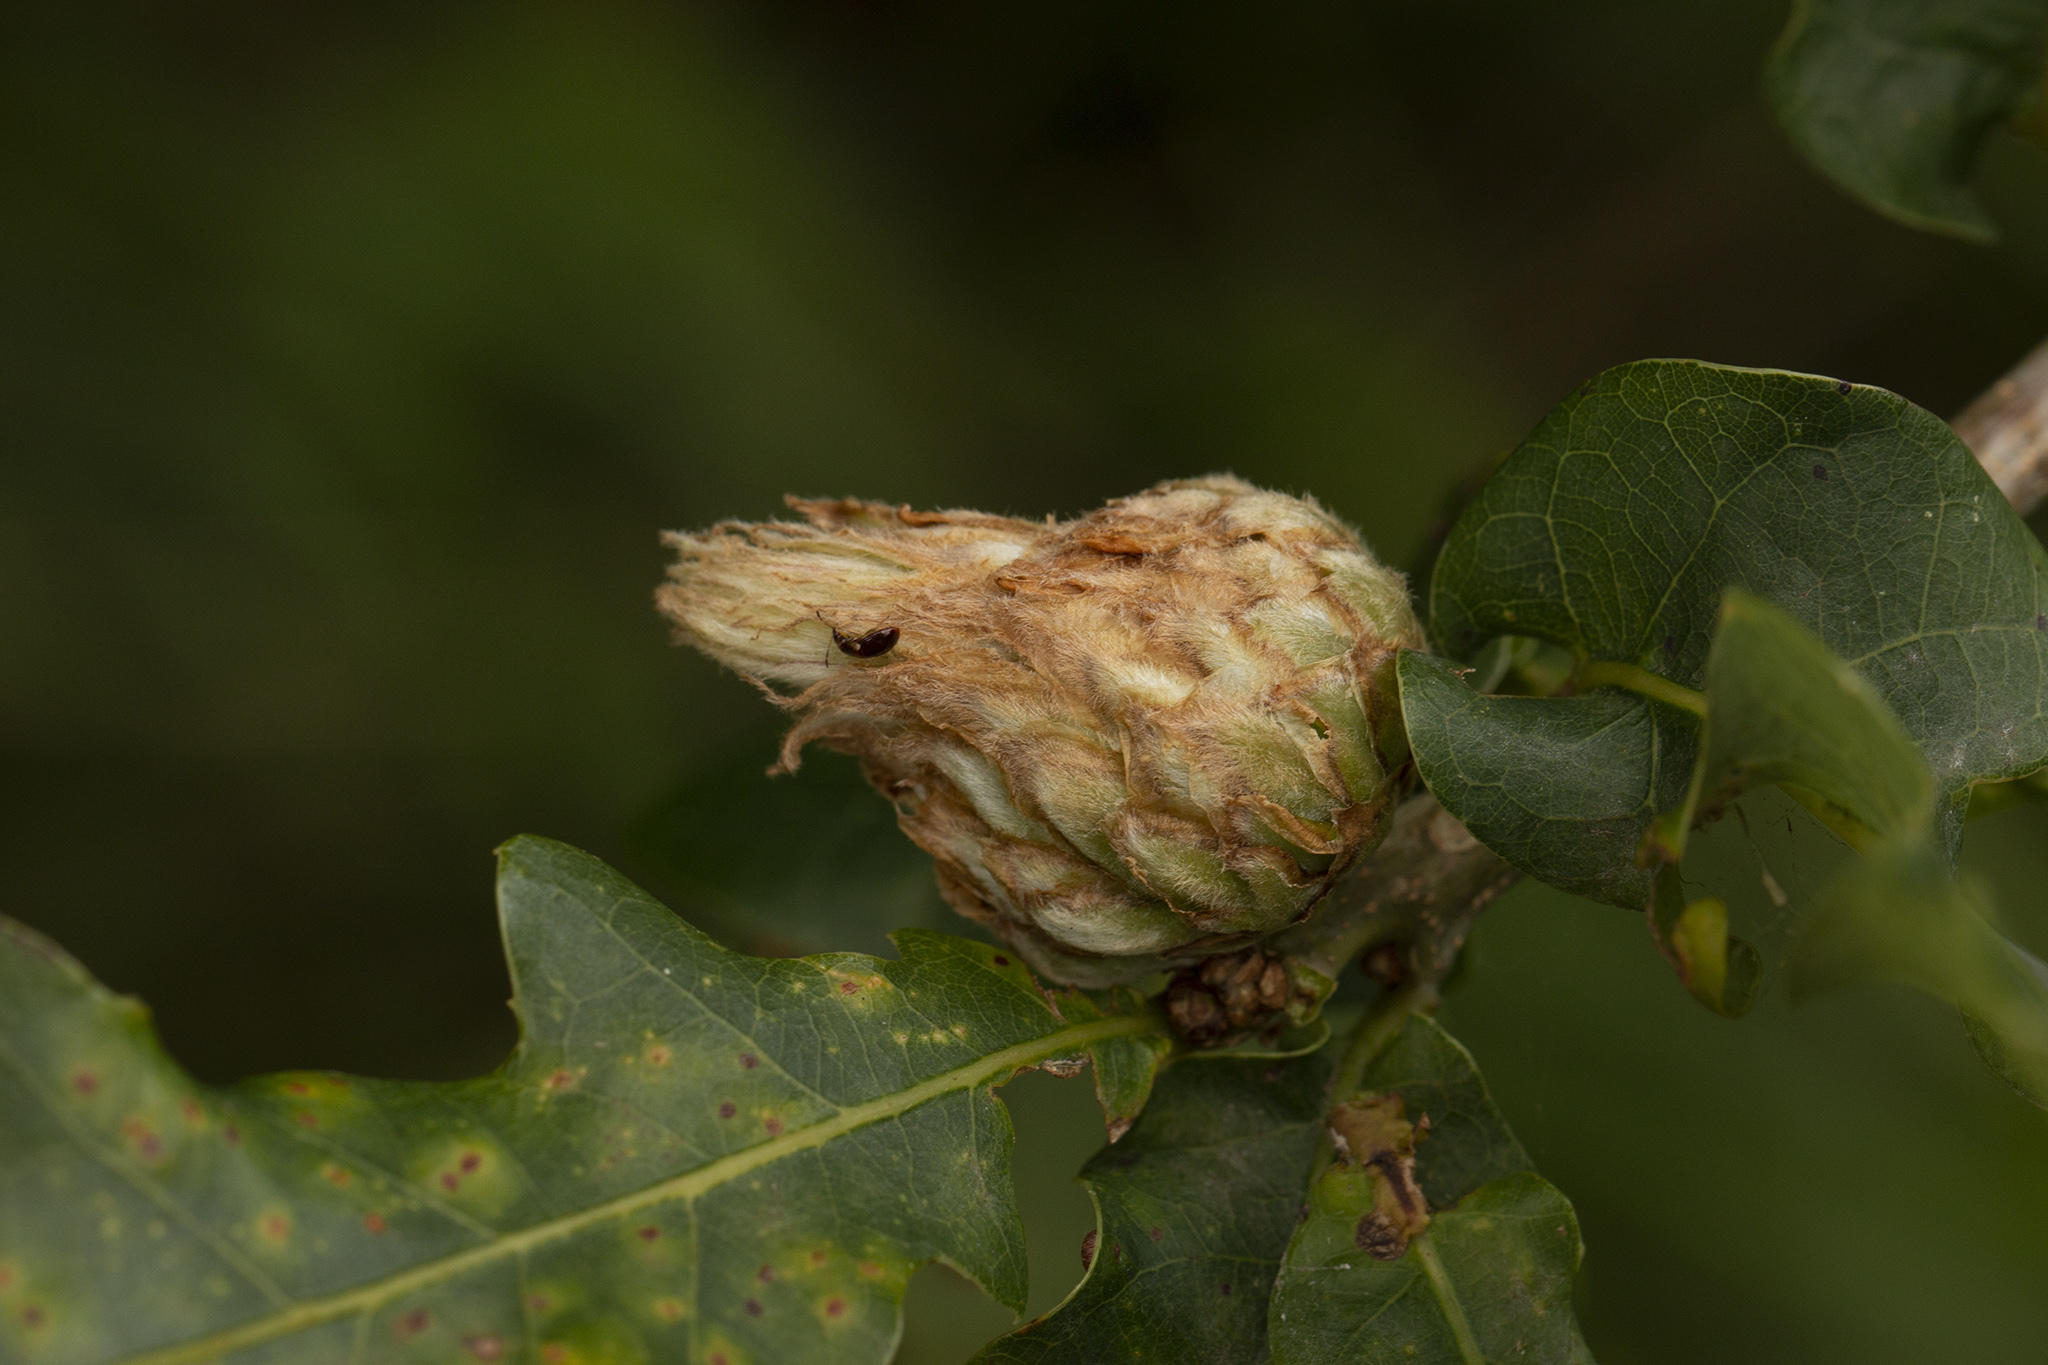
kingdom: Animalia
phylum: Arthropoda
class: Insecta
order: Hymenoptera
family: Cynipidae
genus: Andricus
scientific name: Andricus foecundatrix
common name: Artichoke gall
